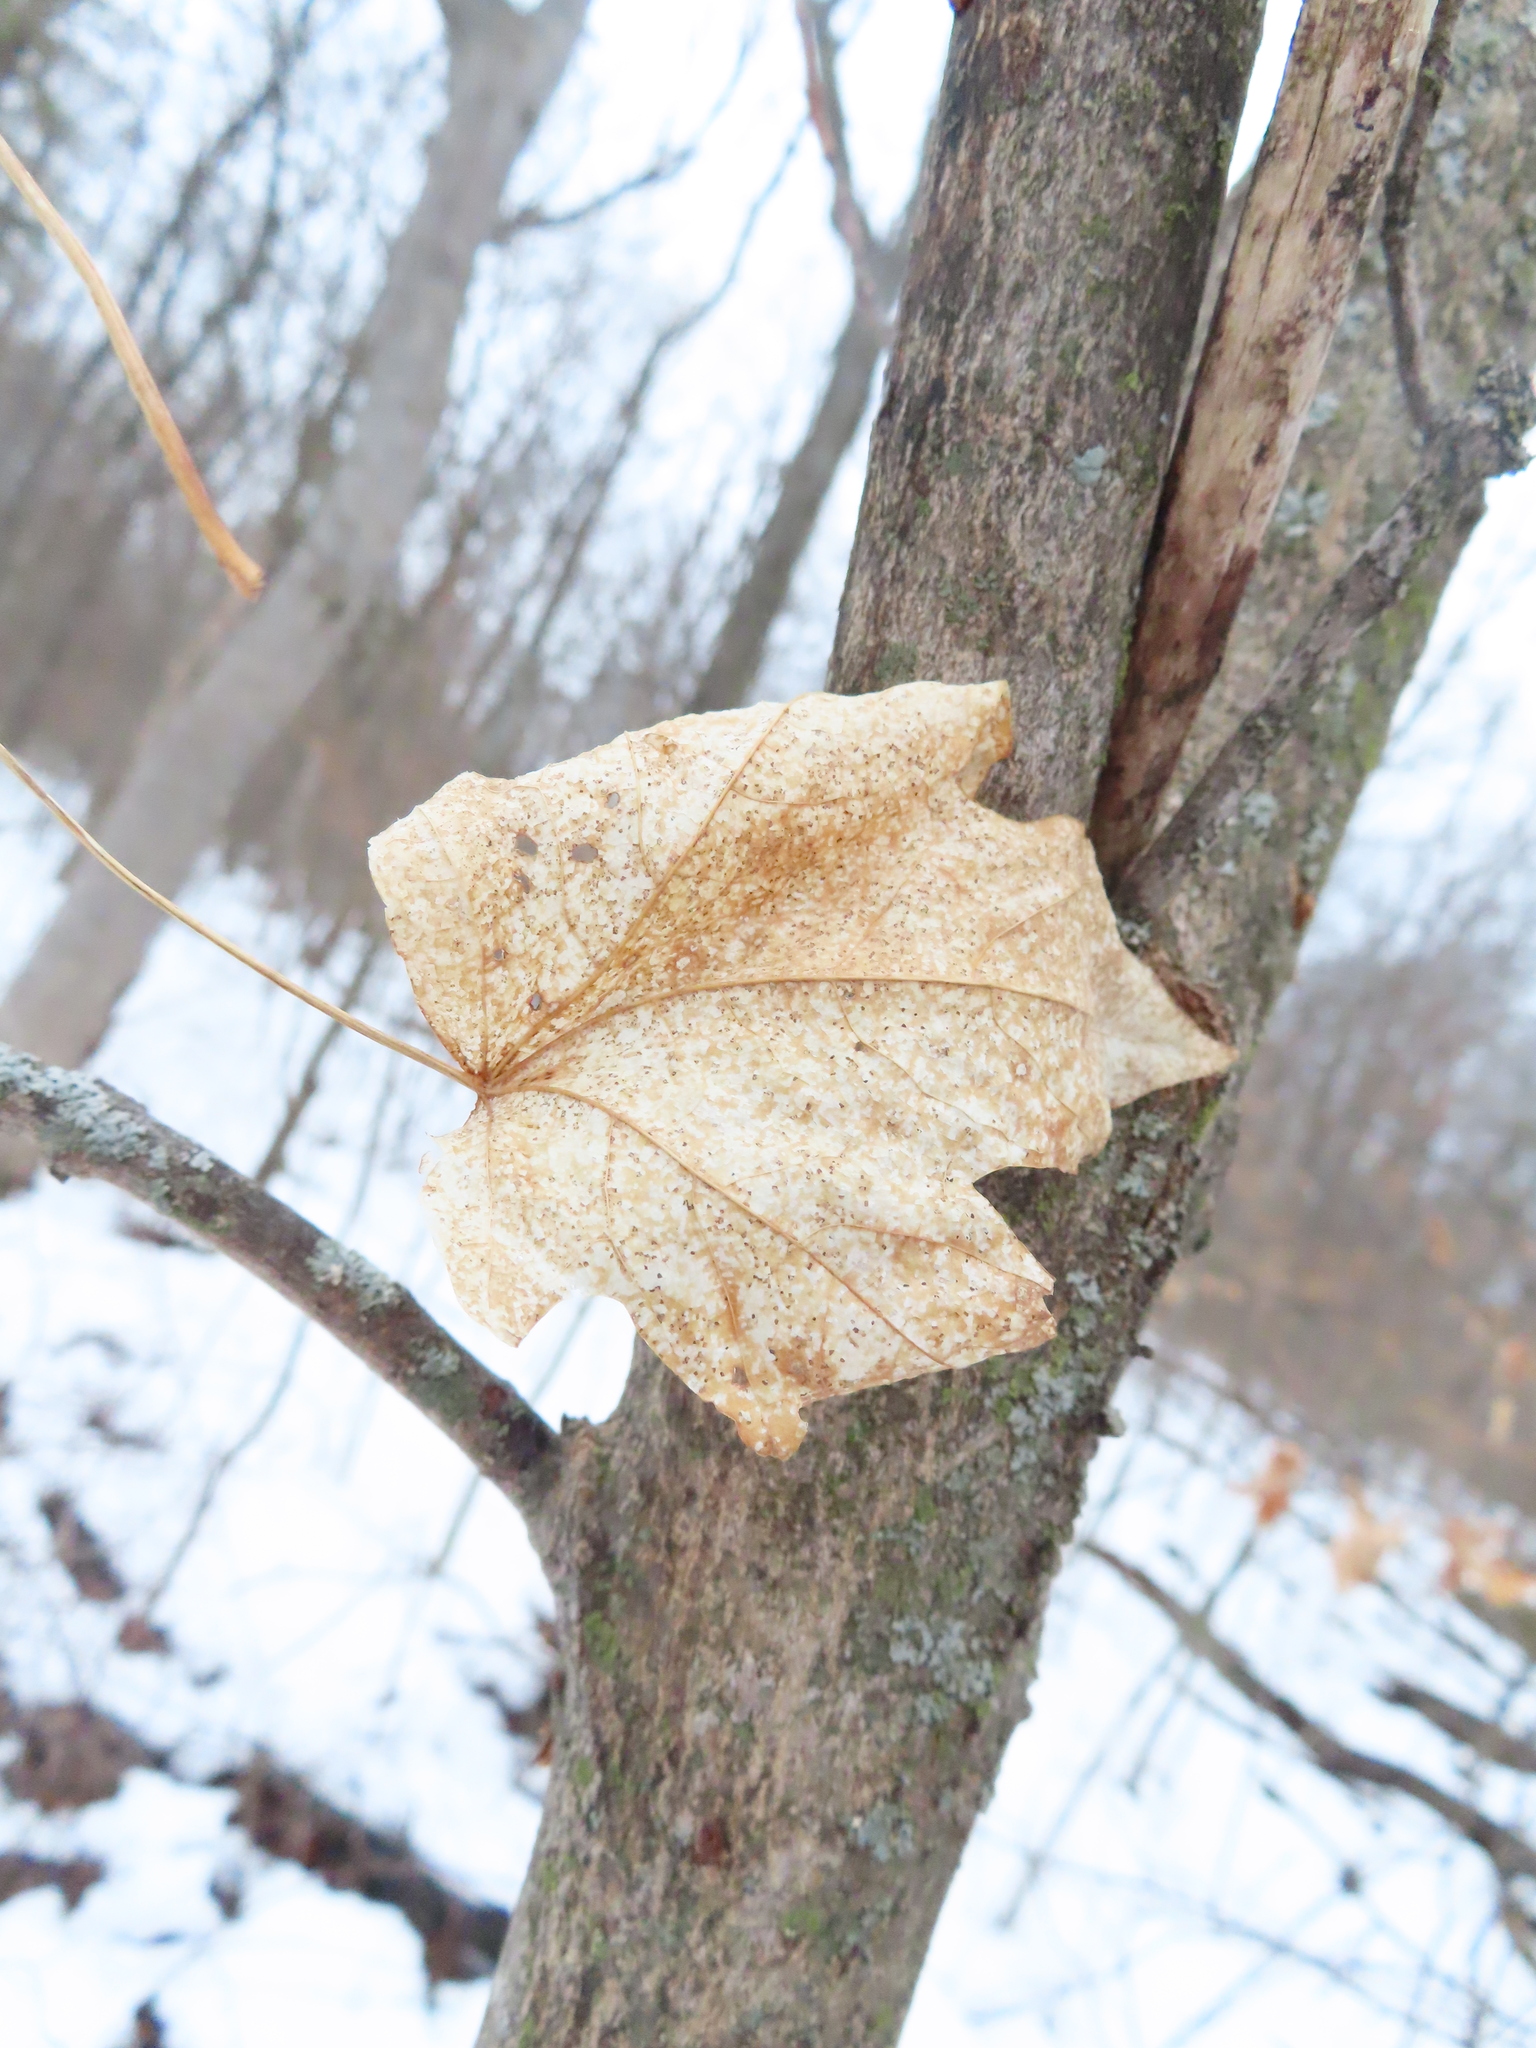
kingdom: Plantae
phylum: Tracheophyta
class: Magnoliopsida
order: Sapindales
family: Sapindaceae
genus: Acer
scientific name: Acer saccharum
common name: Sugar maple
